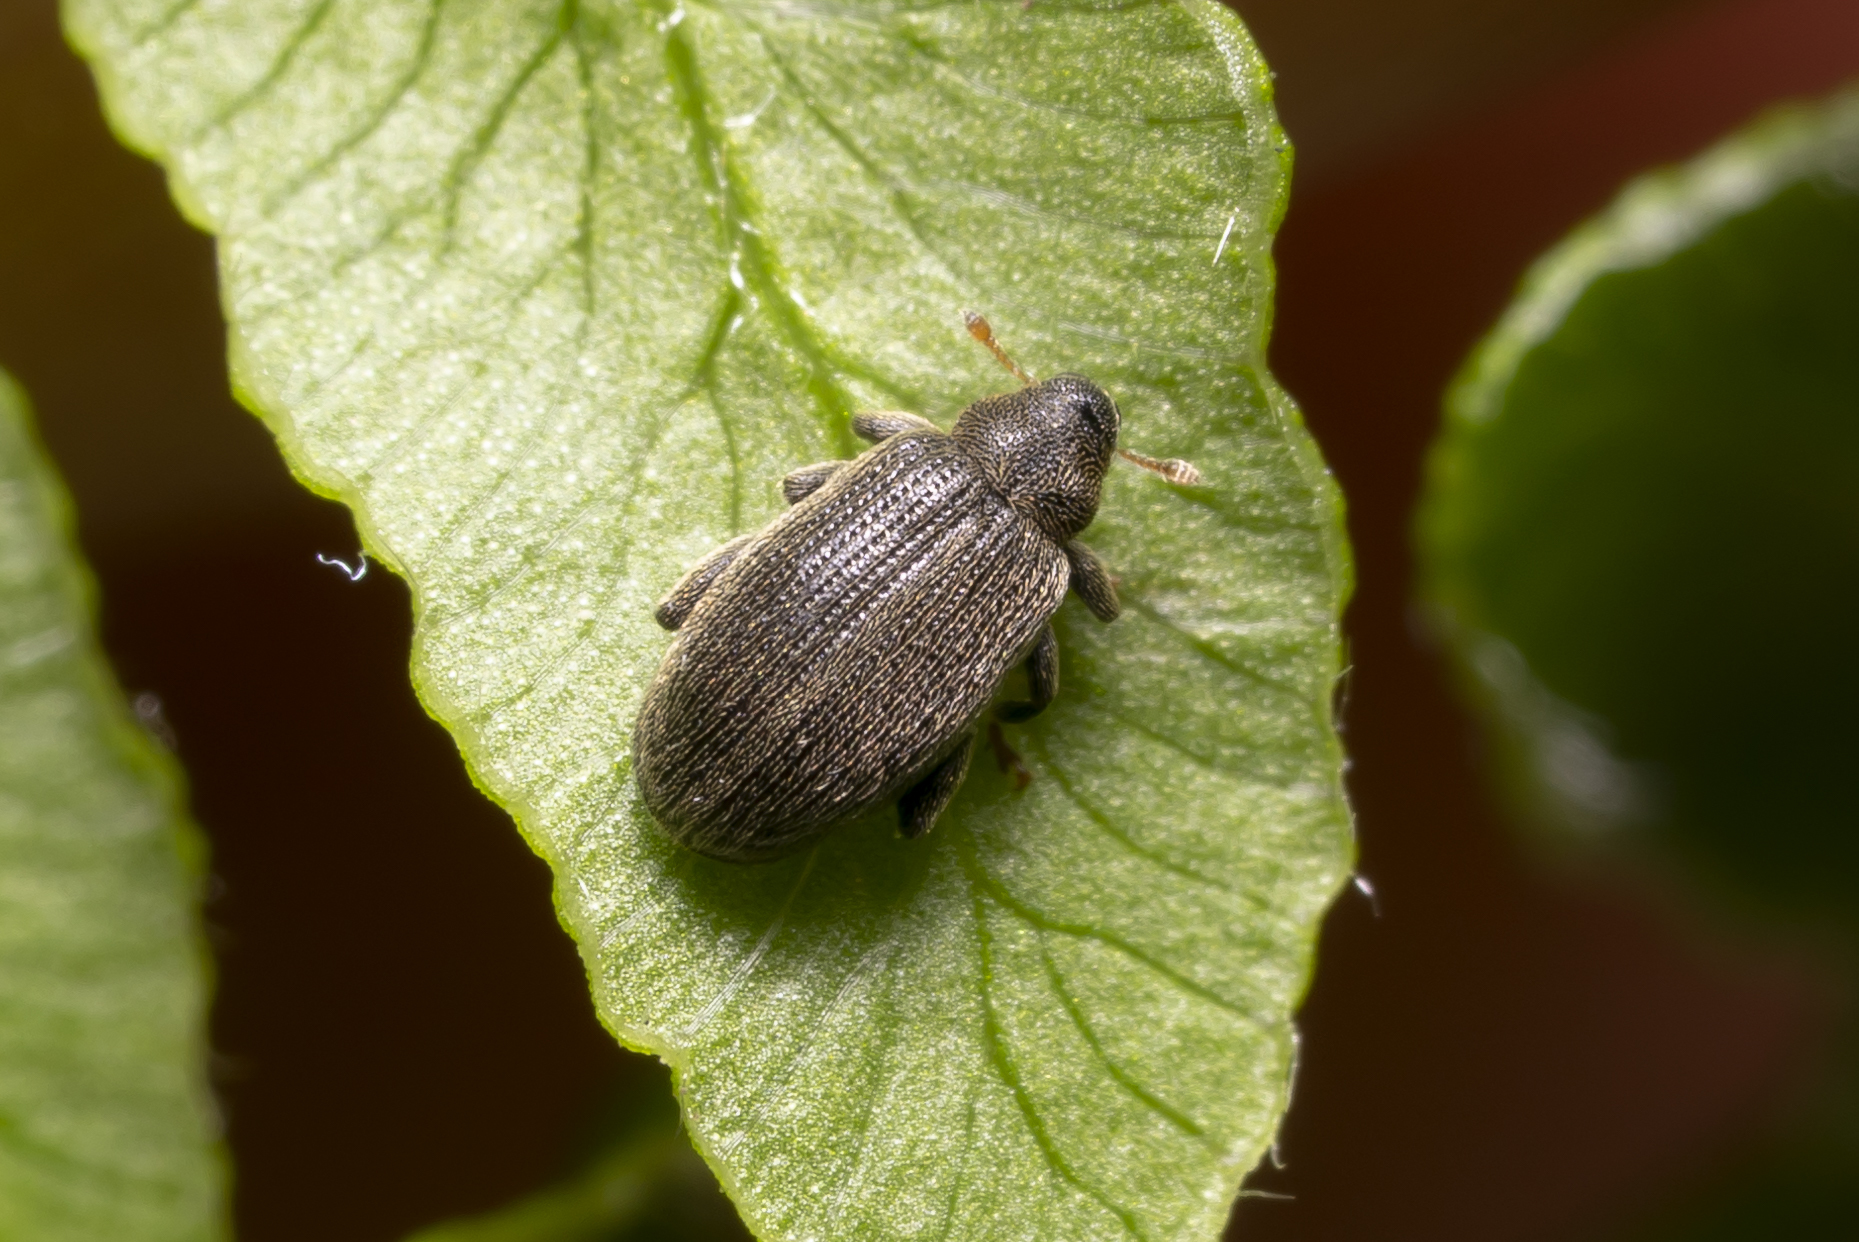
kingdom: Animalia
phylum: Arthropoda
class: Insecta
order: Coleoptera
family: Curculionidae
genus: Orchestes
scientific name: Orchestes fagi
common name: Beech leaf miner
